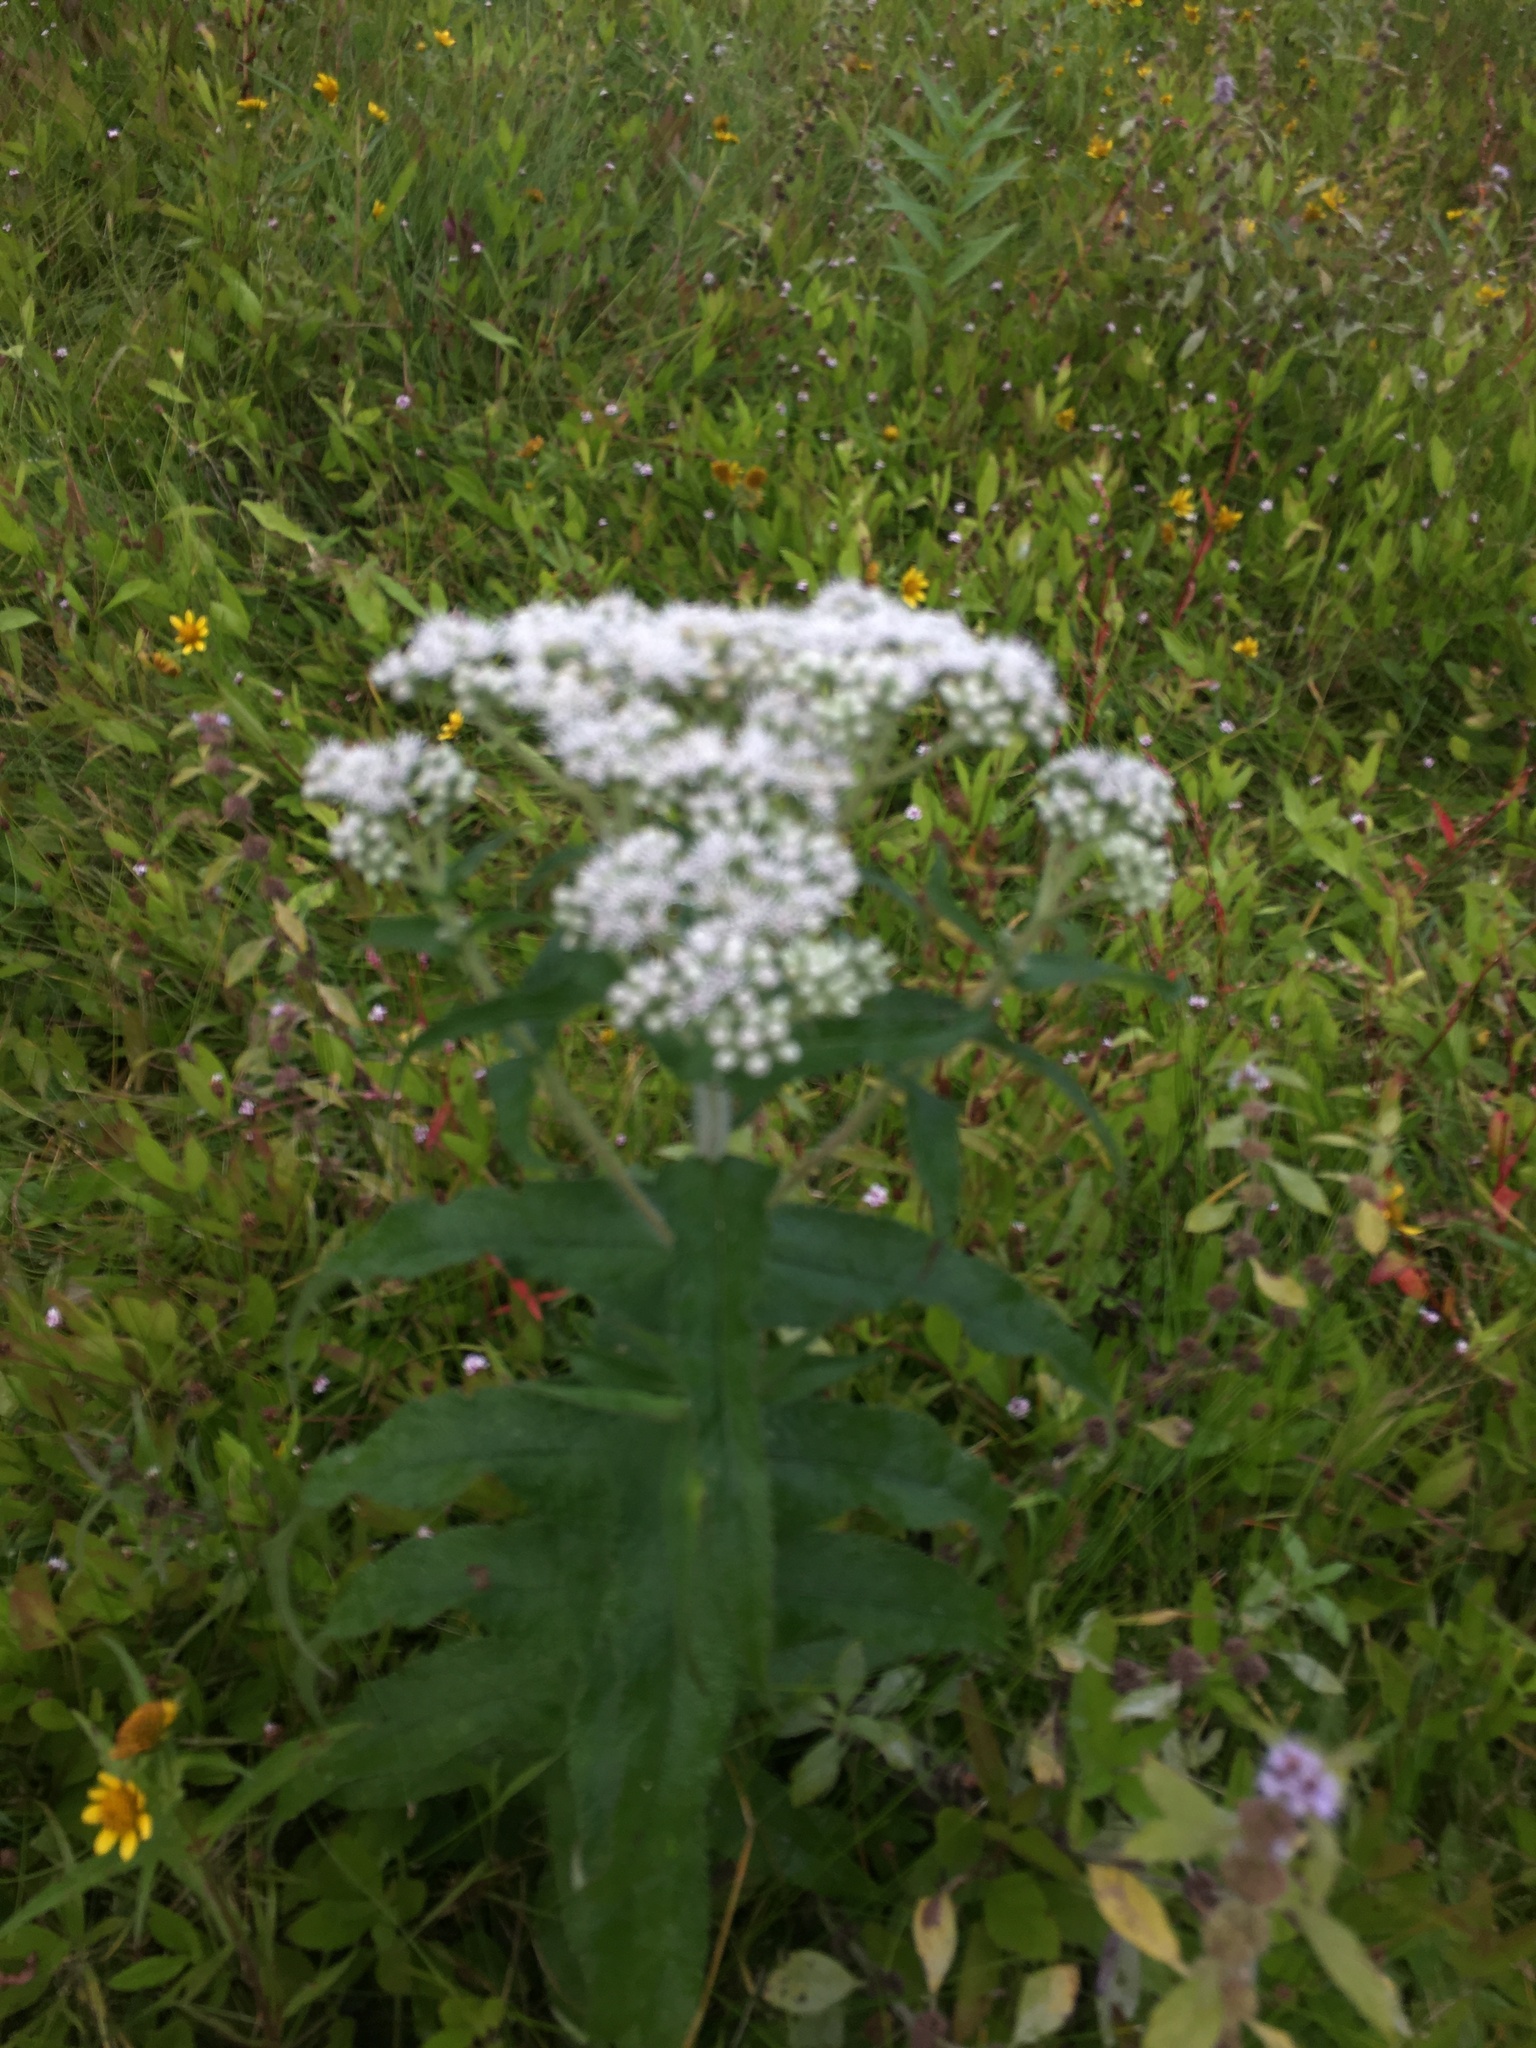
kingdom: Plantae
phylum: Tracheophyta
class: Magnoliopsida
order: Asterales
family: Asteraceae
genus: Eupatorium
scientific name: Eupatorium perfoliatum
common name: Boneset
